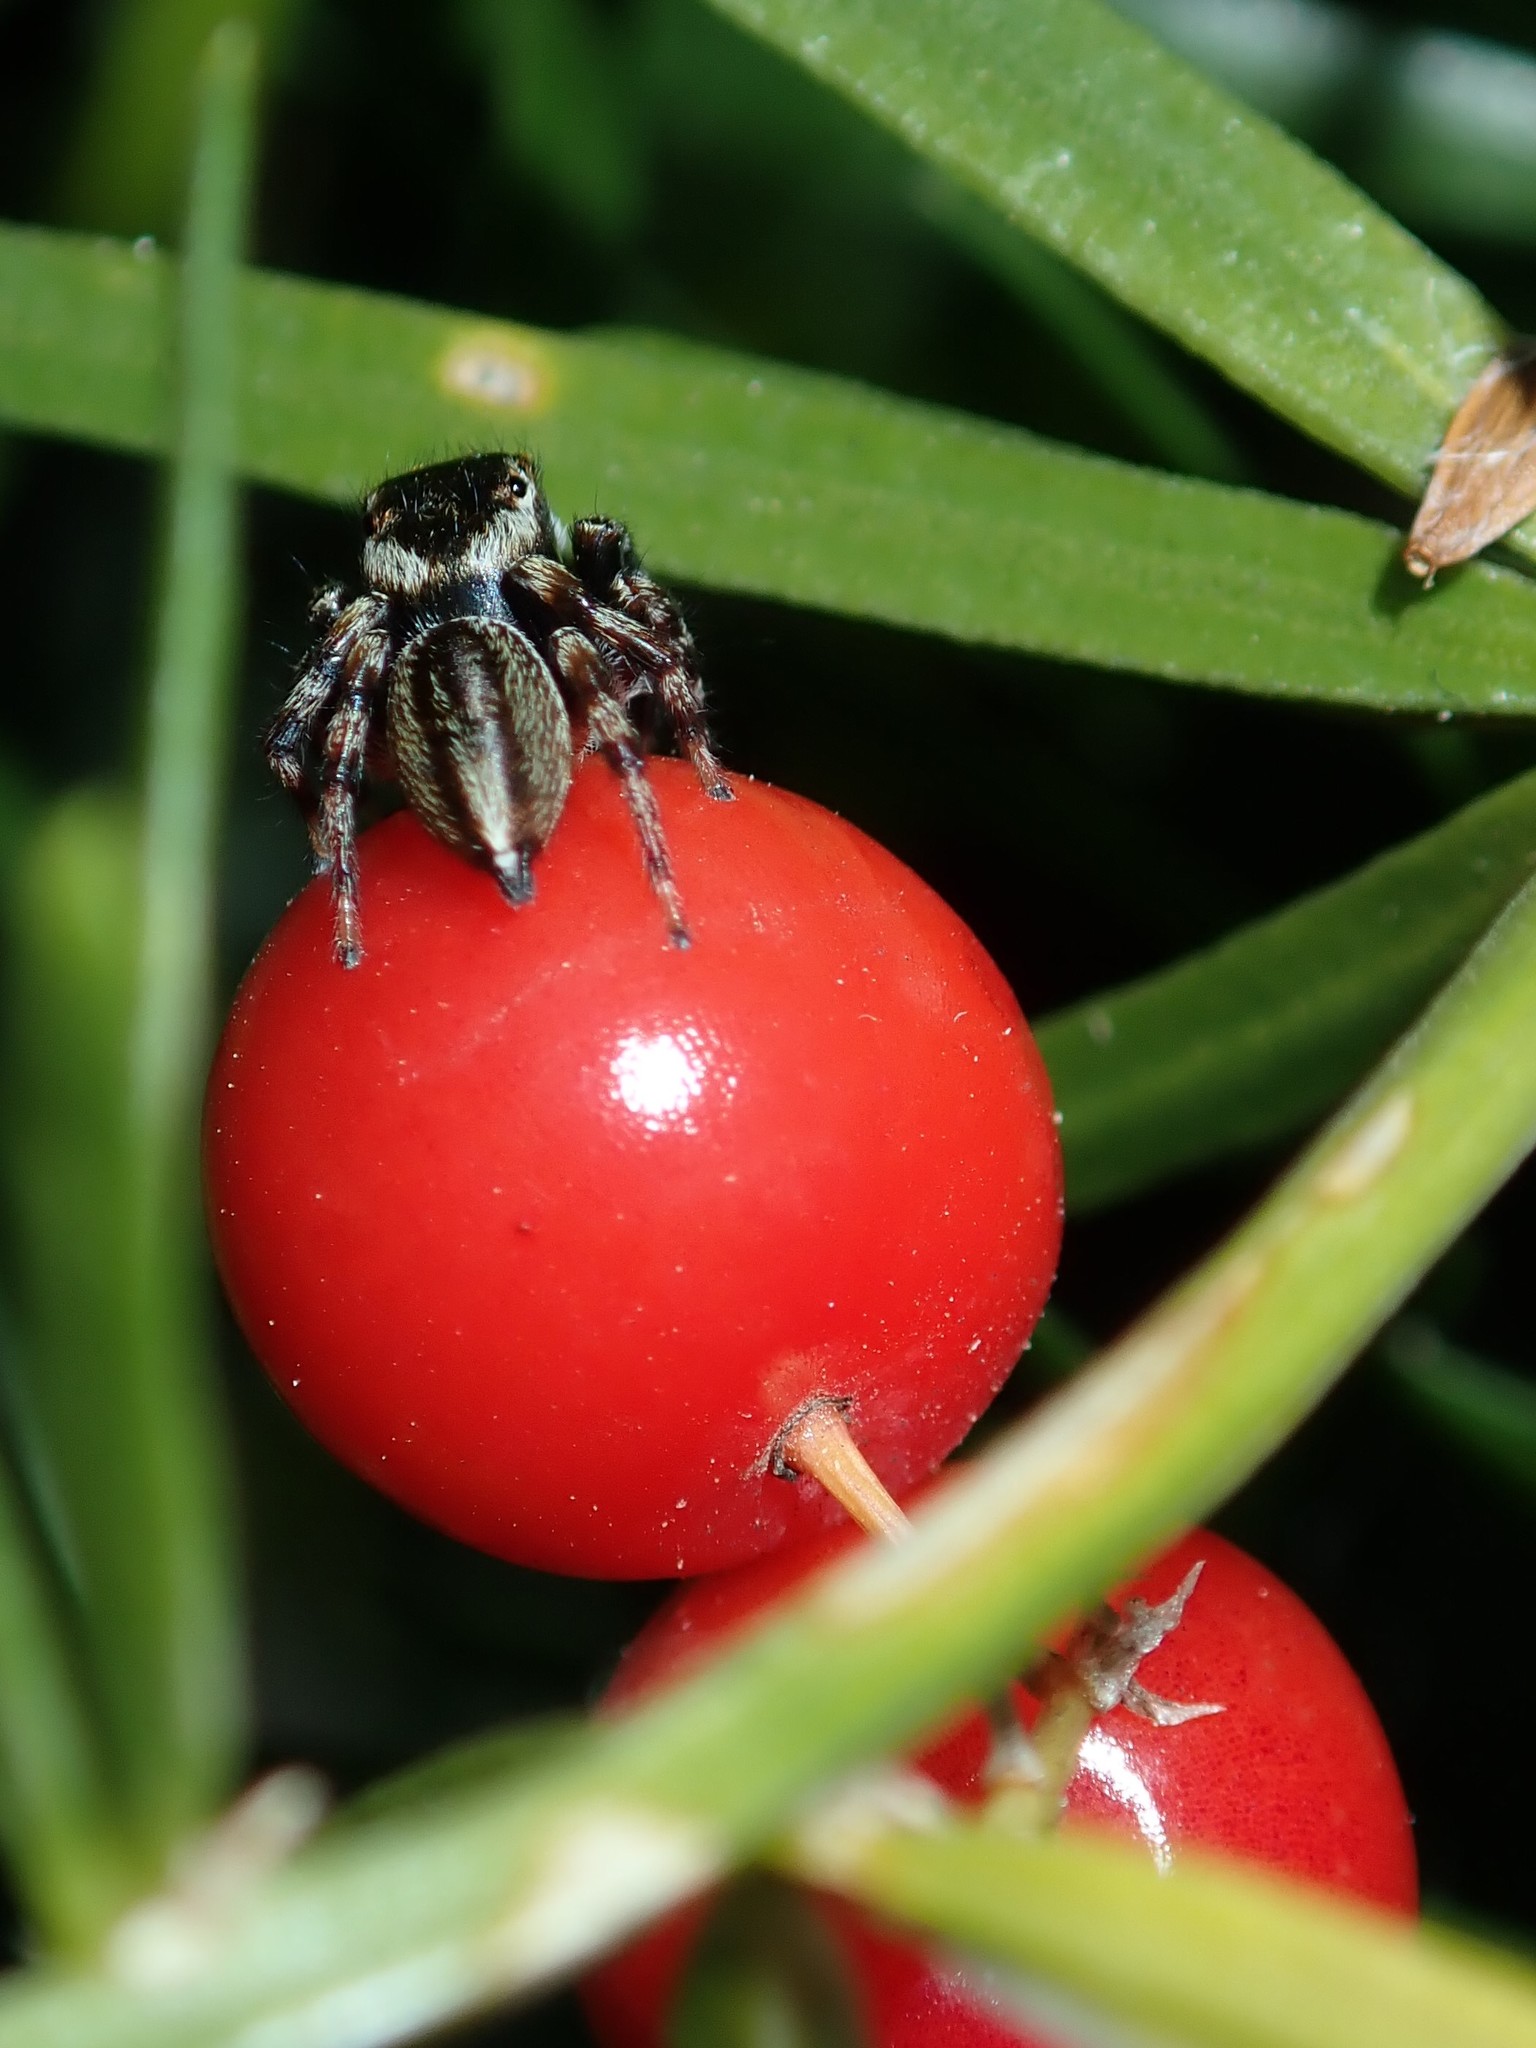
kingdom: Animalia
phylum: Arthropoda
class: Arachnida
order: Araneae
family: Salticidae
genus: Maratus
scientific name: Maratus scutulatus
